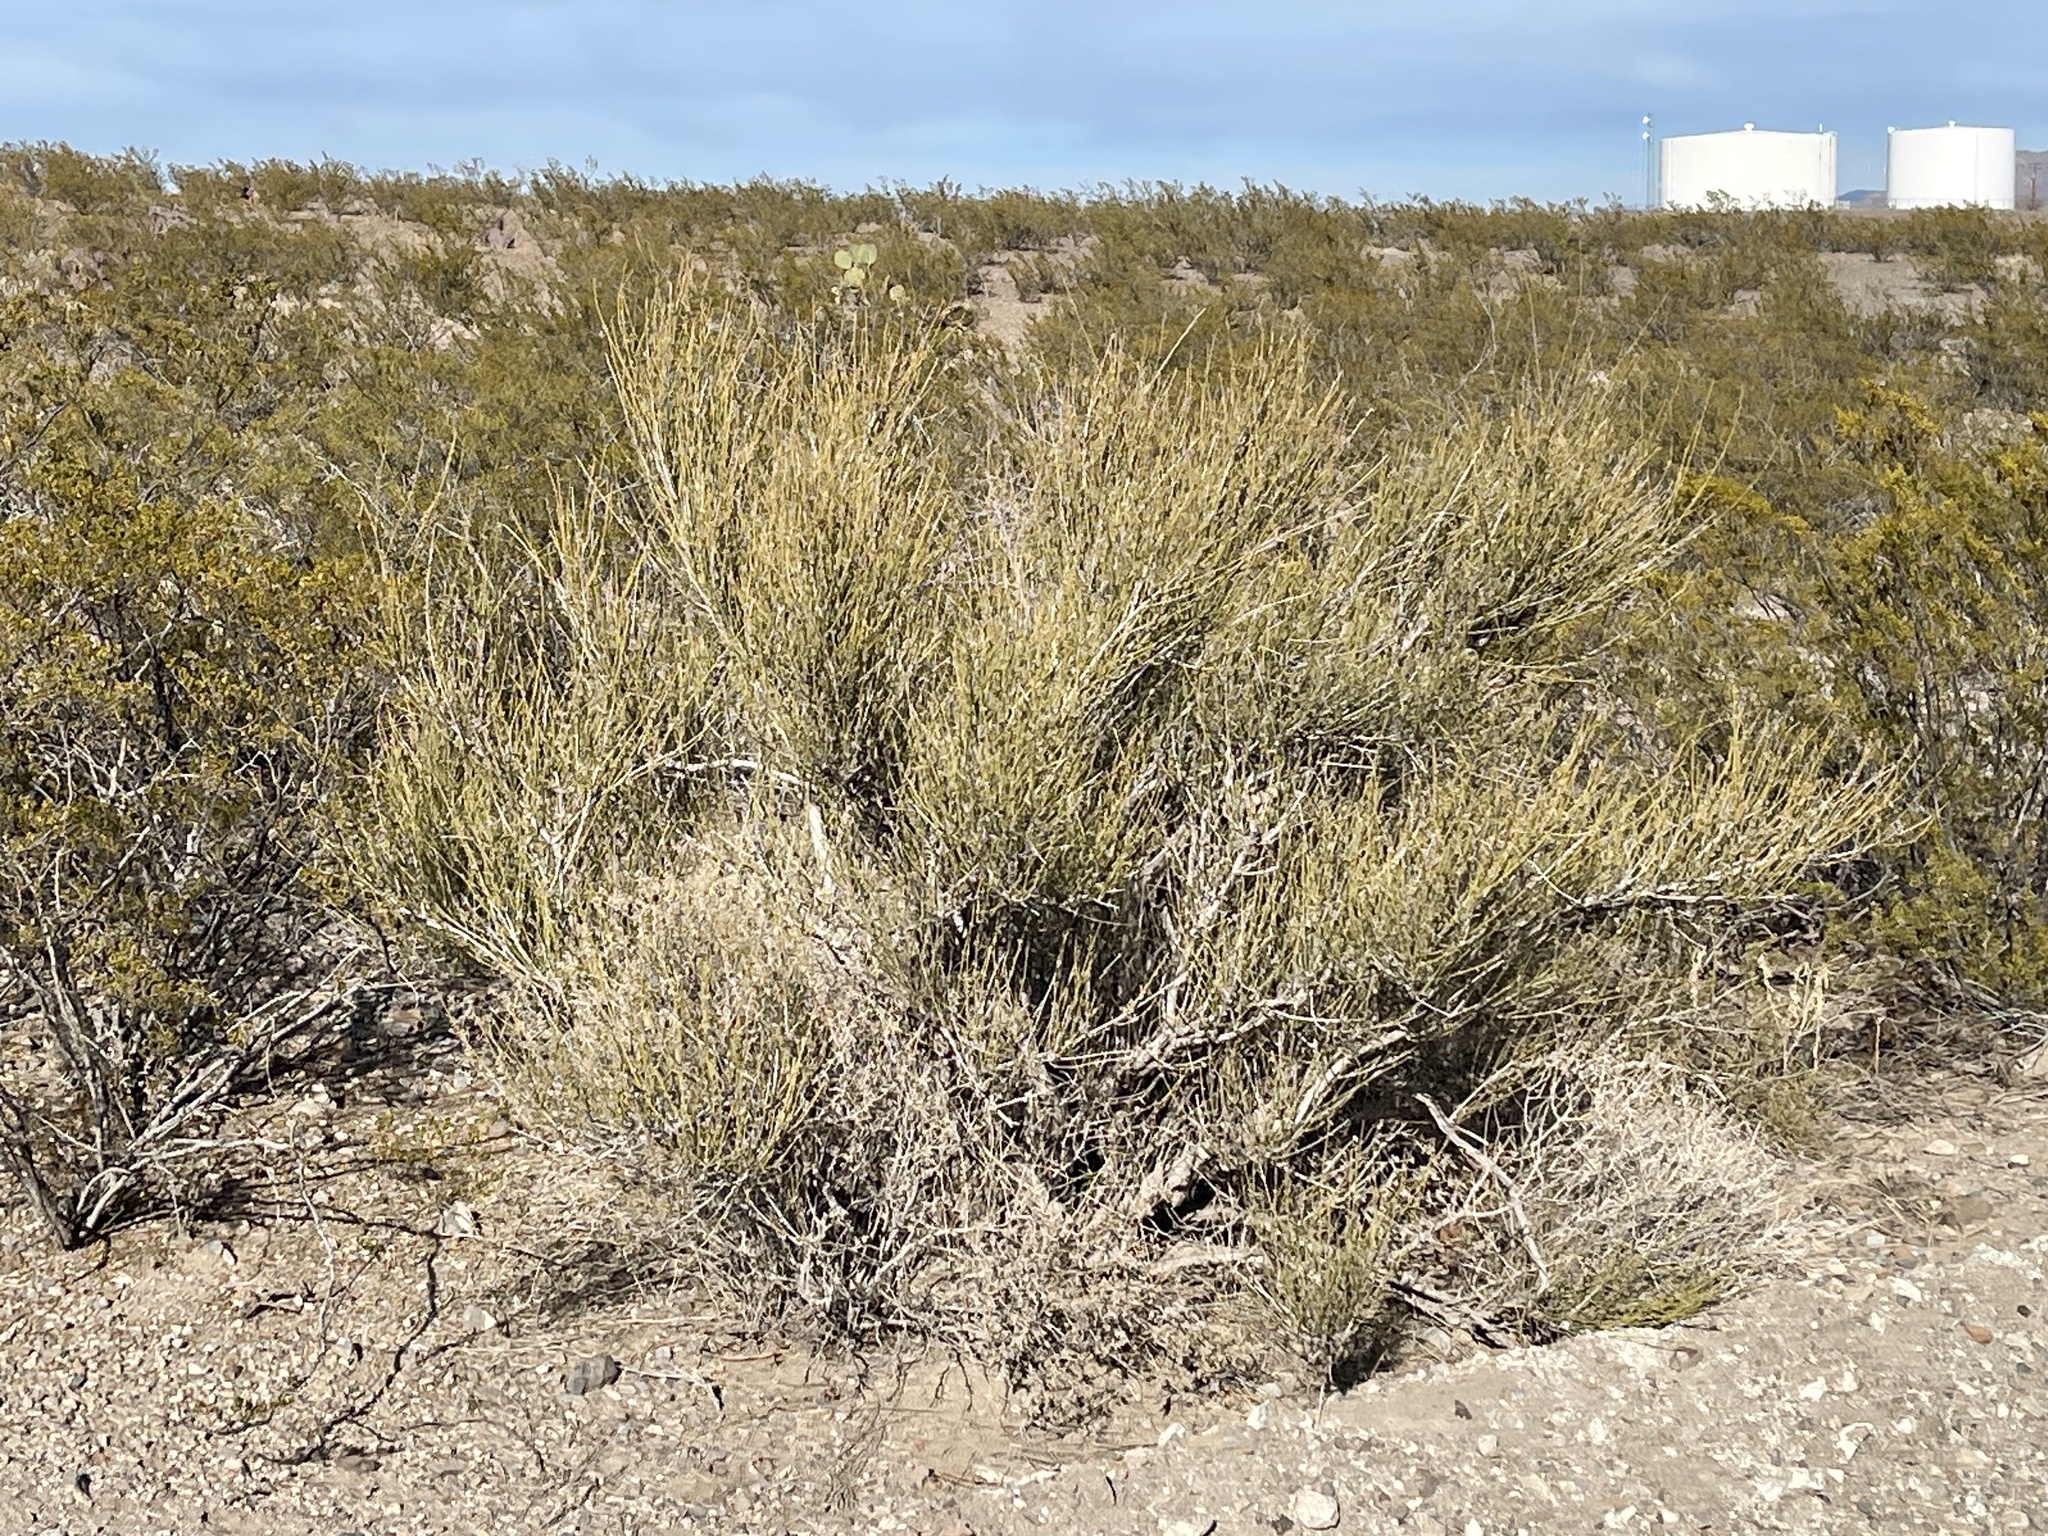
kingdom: Plantae
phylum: Tracheophyta
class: Gnetopsida
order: Ephedrales
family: Ephedraceae
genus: Ephedra
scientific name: Ephedra trifurca
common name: Mexican-tea
